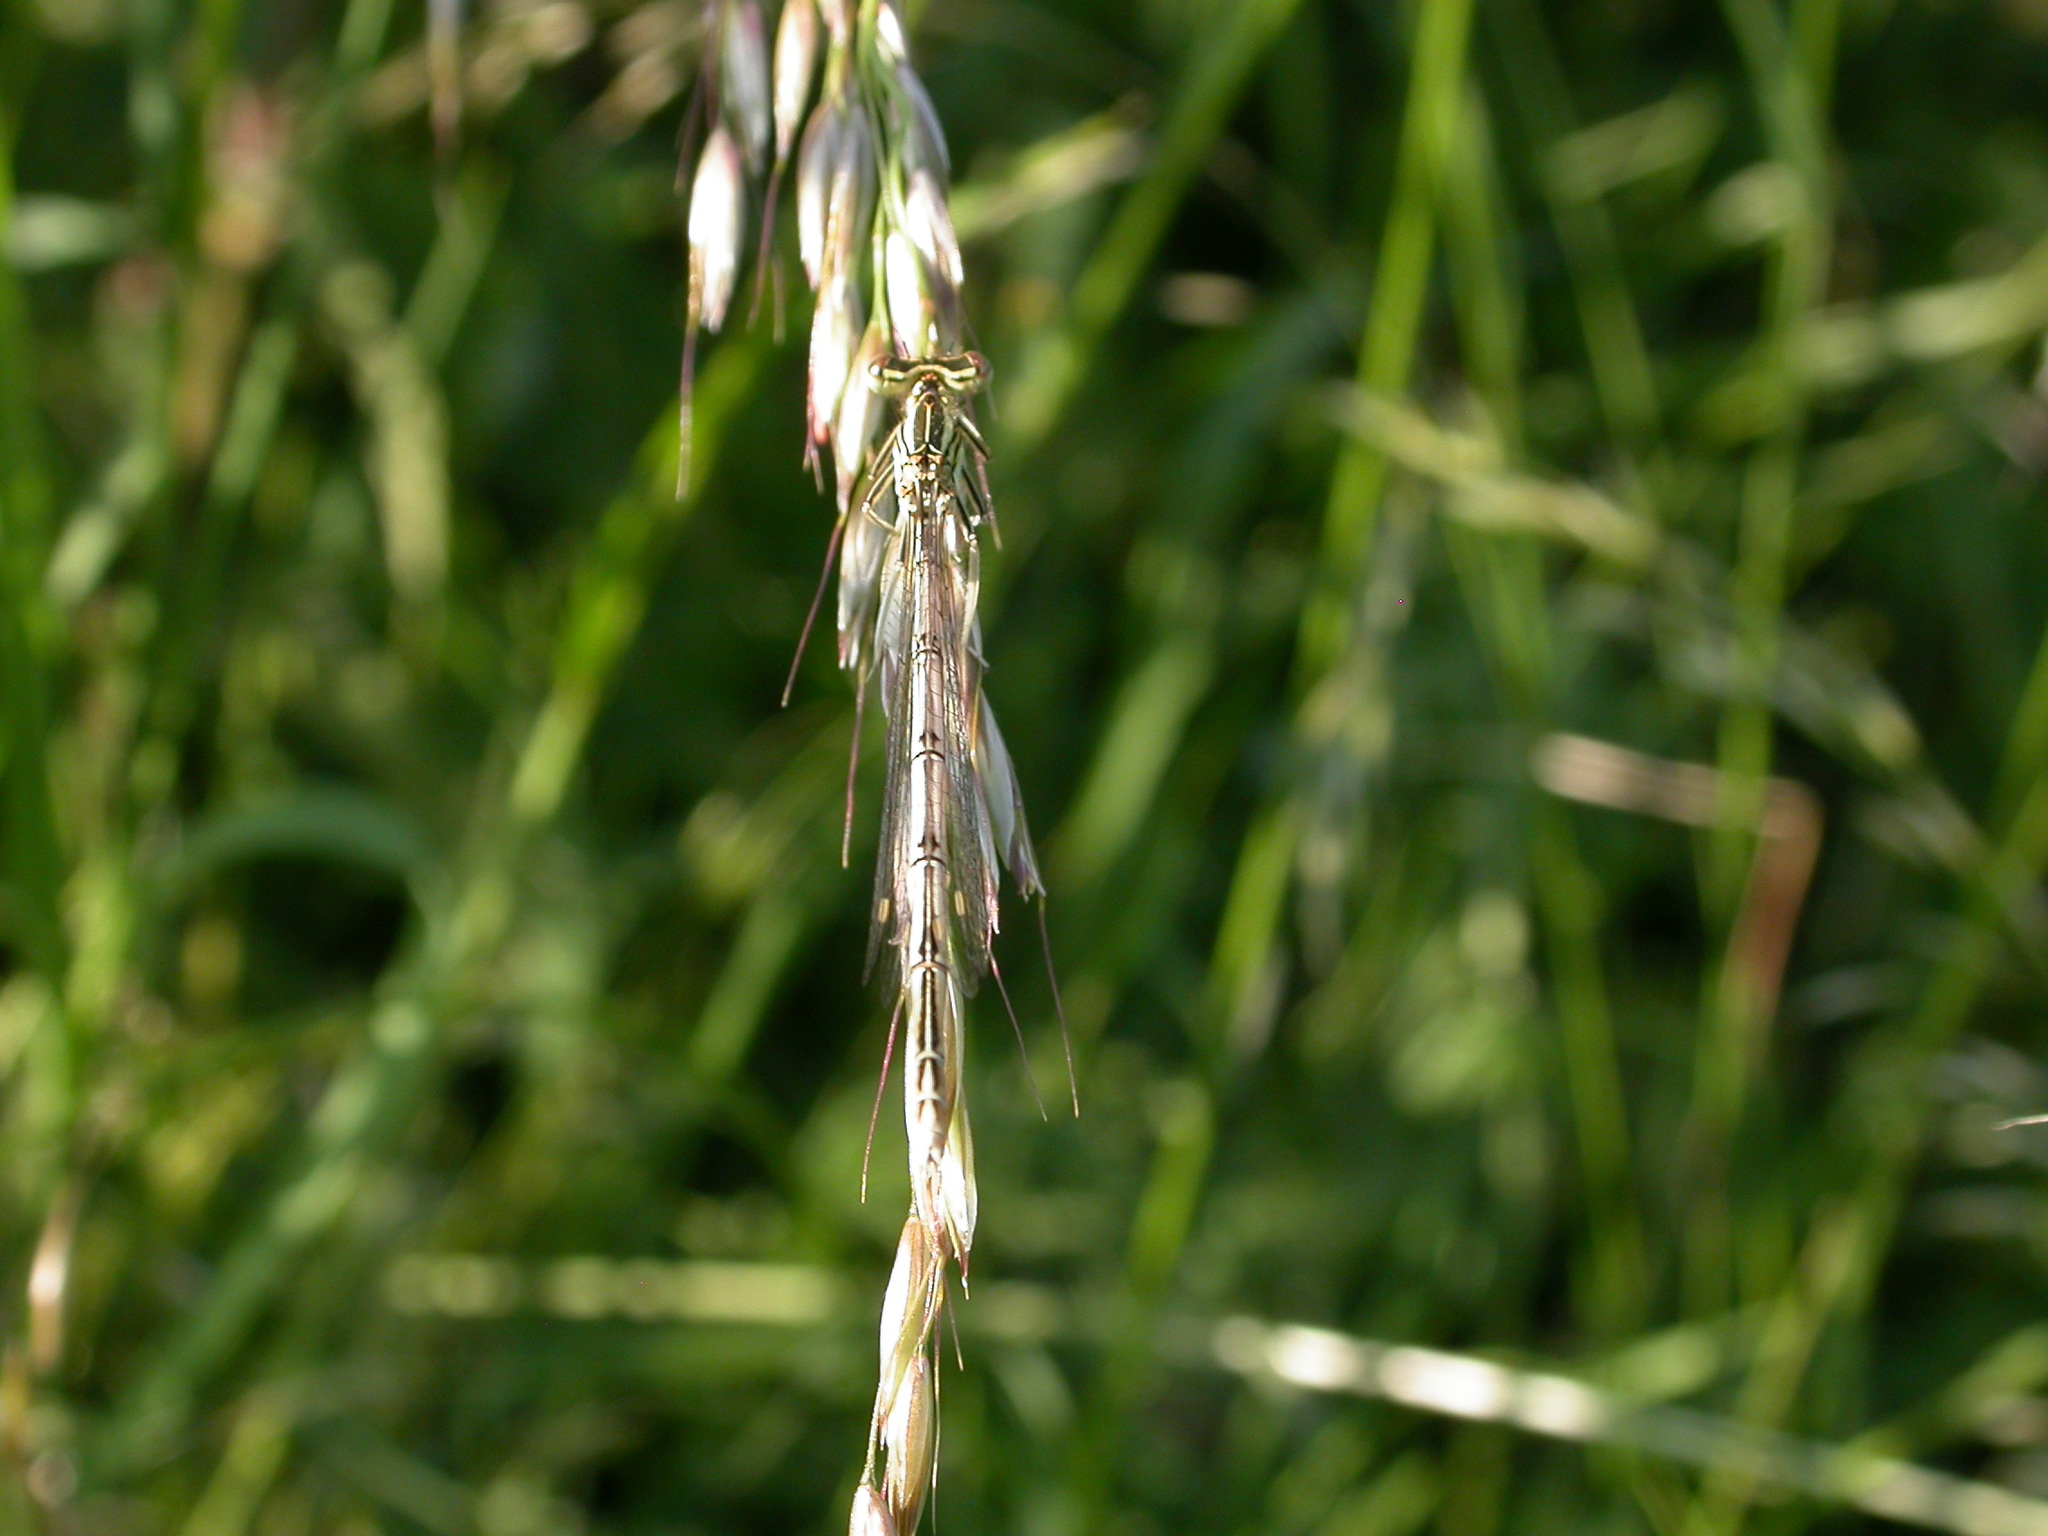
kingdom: Animalia
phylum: Arthropoda
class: Insecta
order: Odonata
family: Platycnemididae
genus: Platycnemis
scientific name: Platycnemis pennipes
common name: White-legged damselfly
